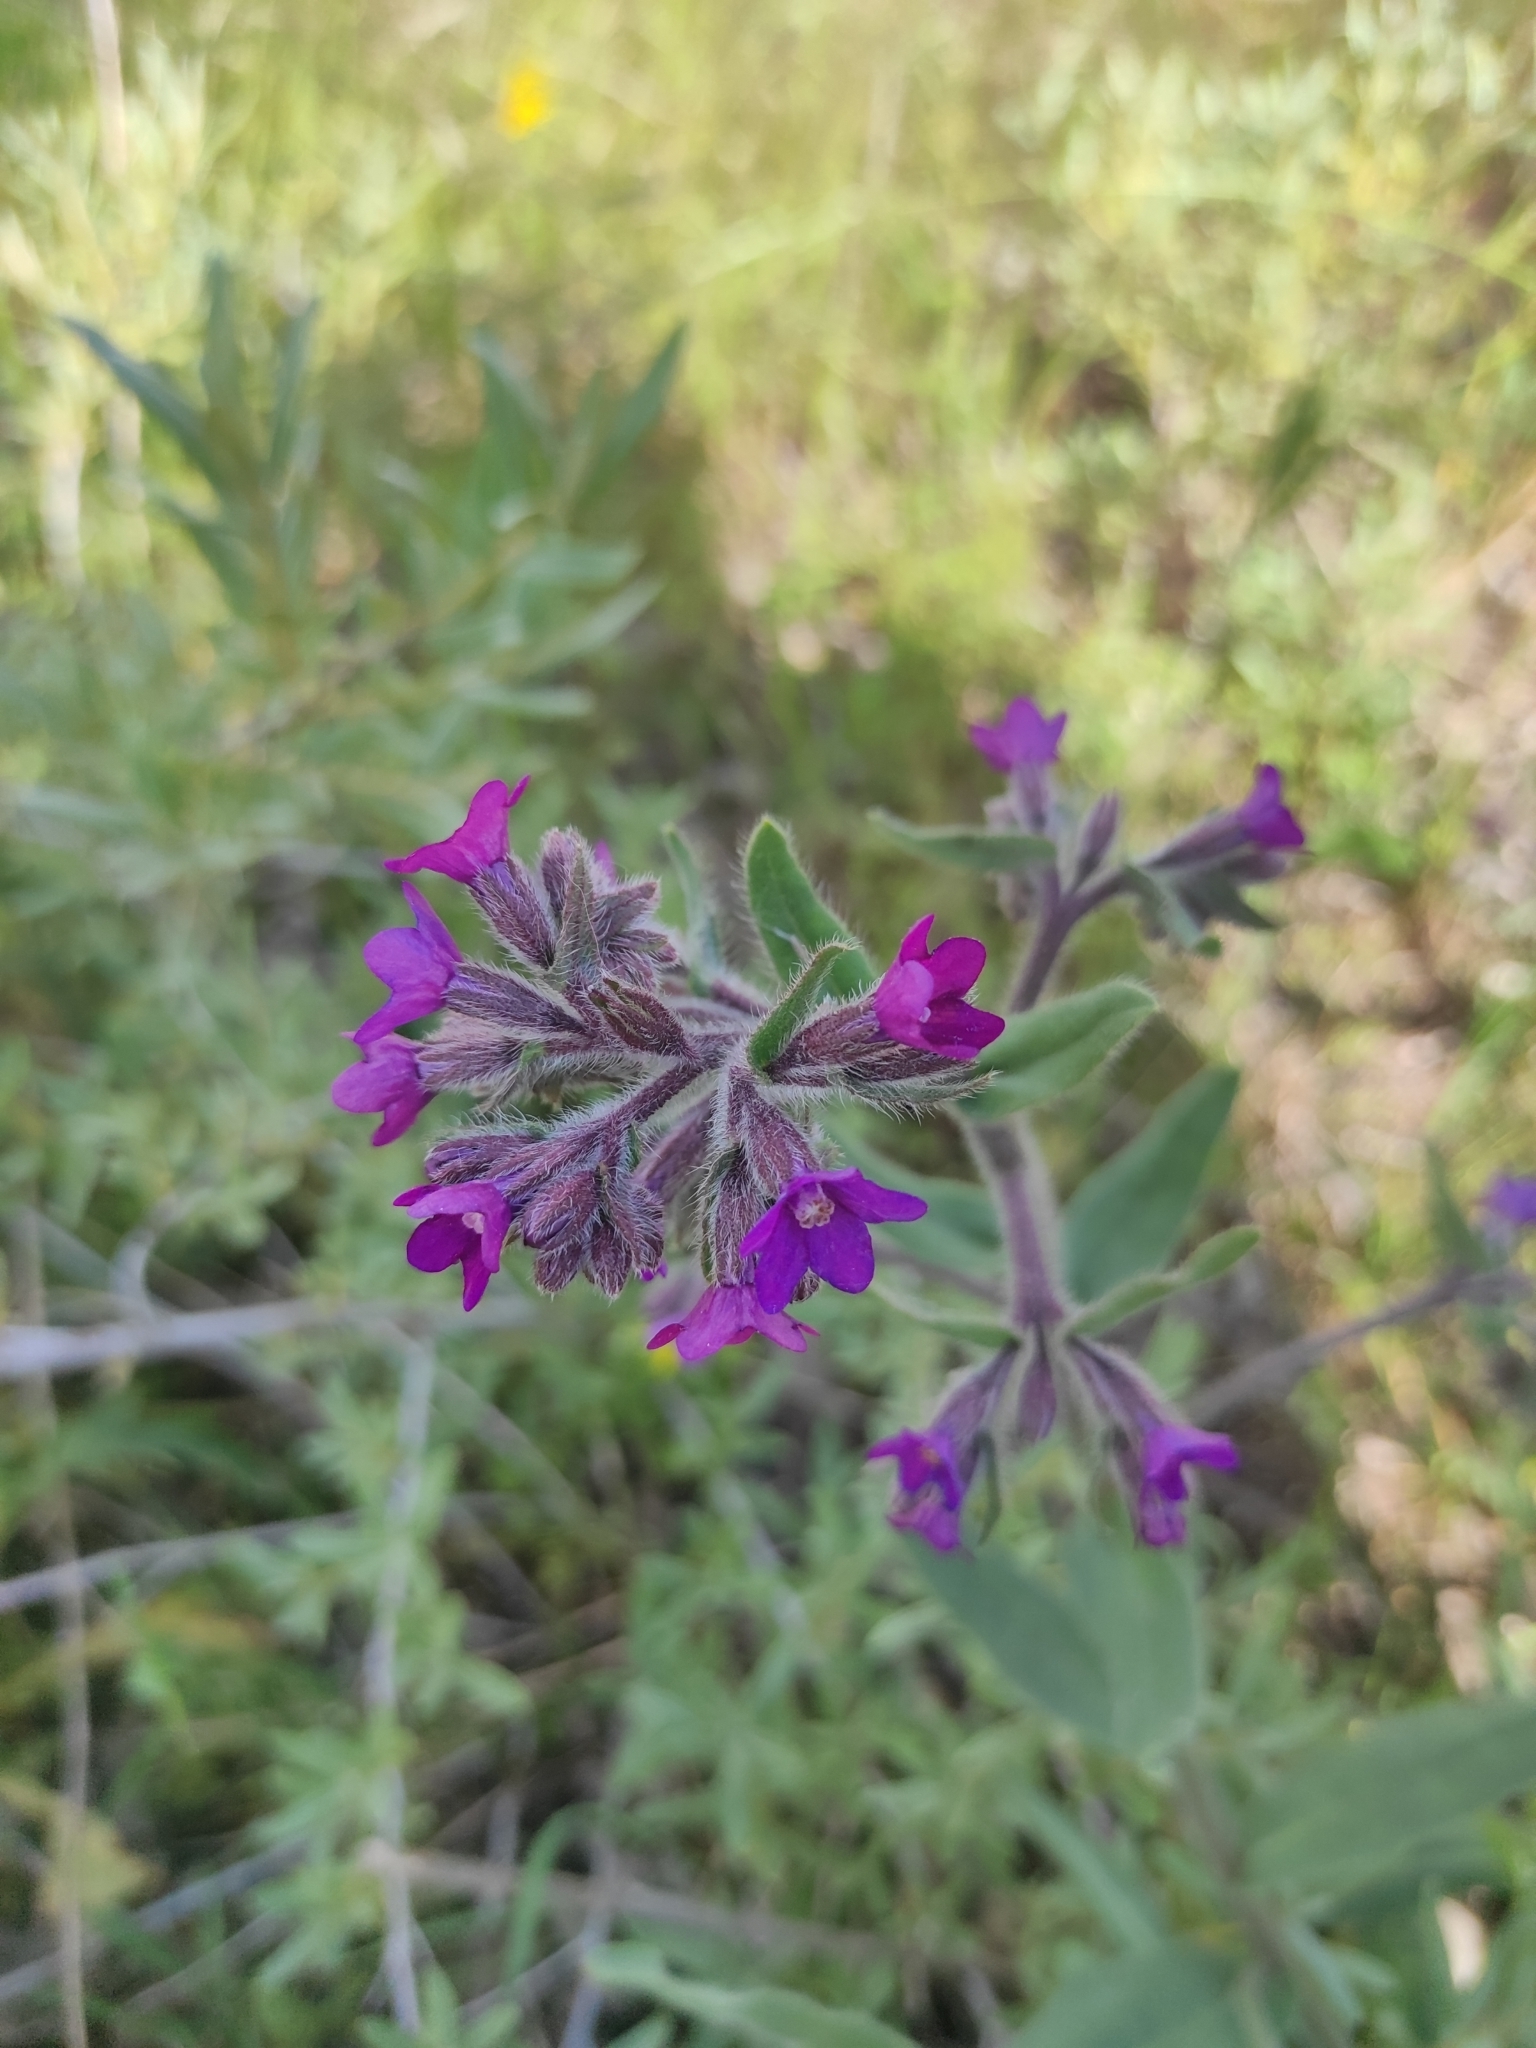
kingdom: Plantae
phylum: Tracheophyta
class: Magnoliopsida
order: Boraginales
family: Boraginaceae
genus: Anchusa
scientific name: Anchusa officinalis
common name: Alkanet
